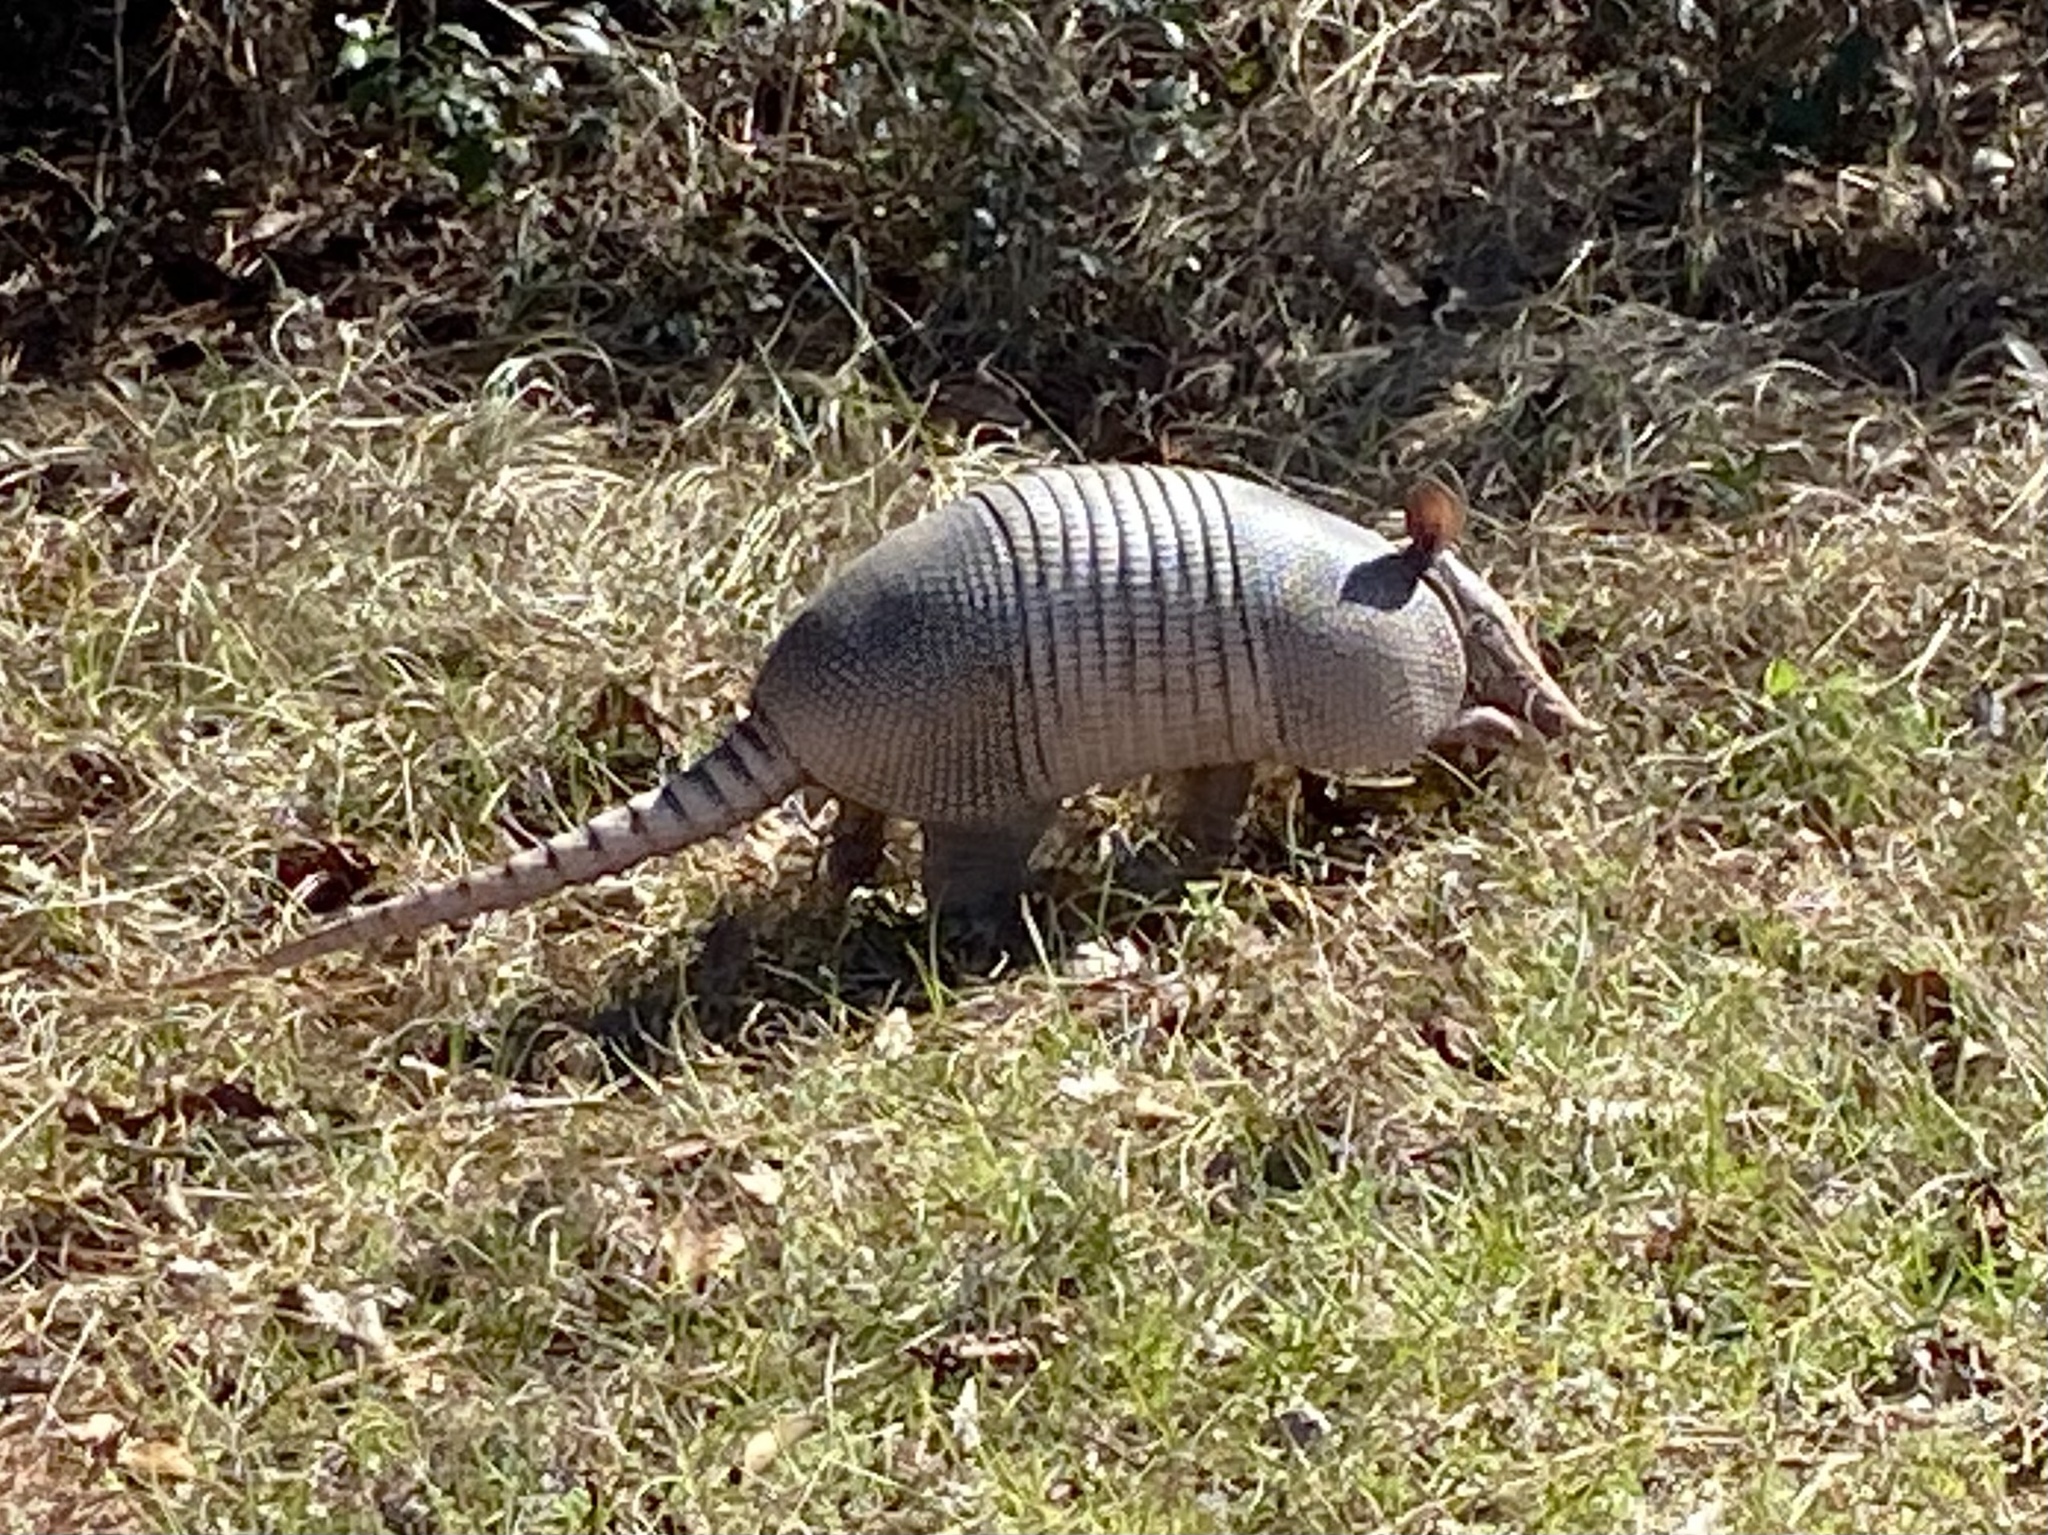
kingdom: Animalia
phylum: Chordata
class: Mammalia
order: Cingulata
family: Dasypodidae
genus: Dasypus
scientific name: Dasypus novemcinctus
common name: Nine-banded armadillo
